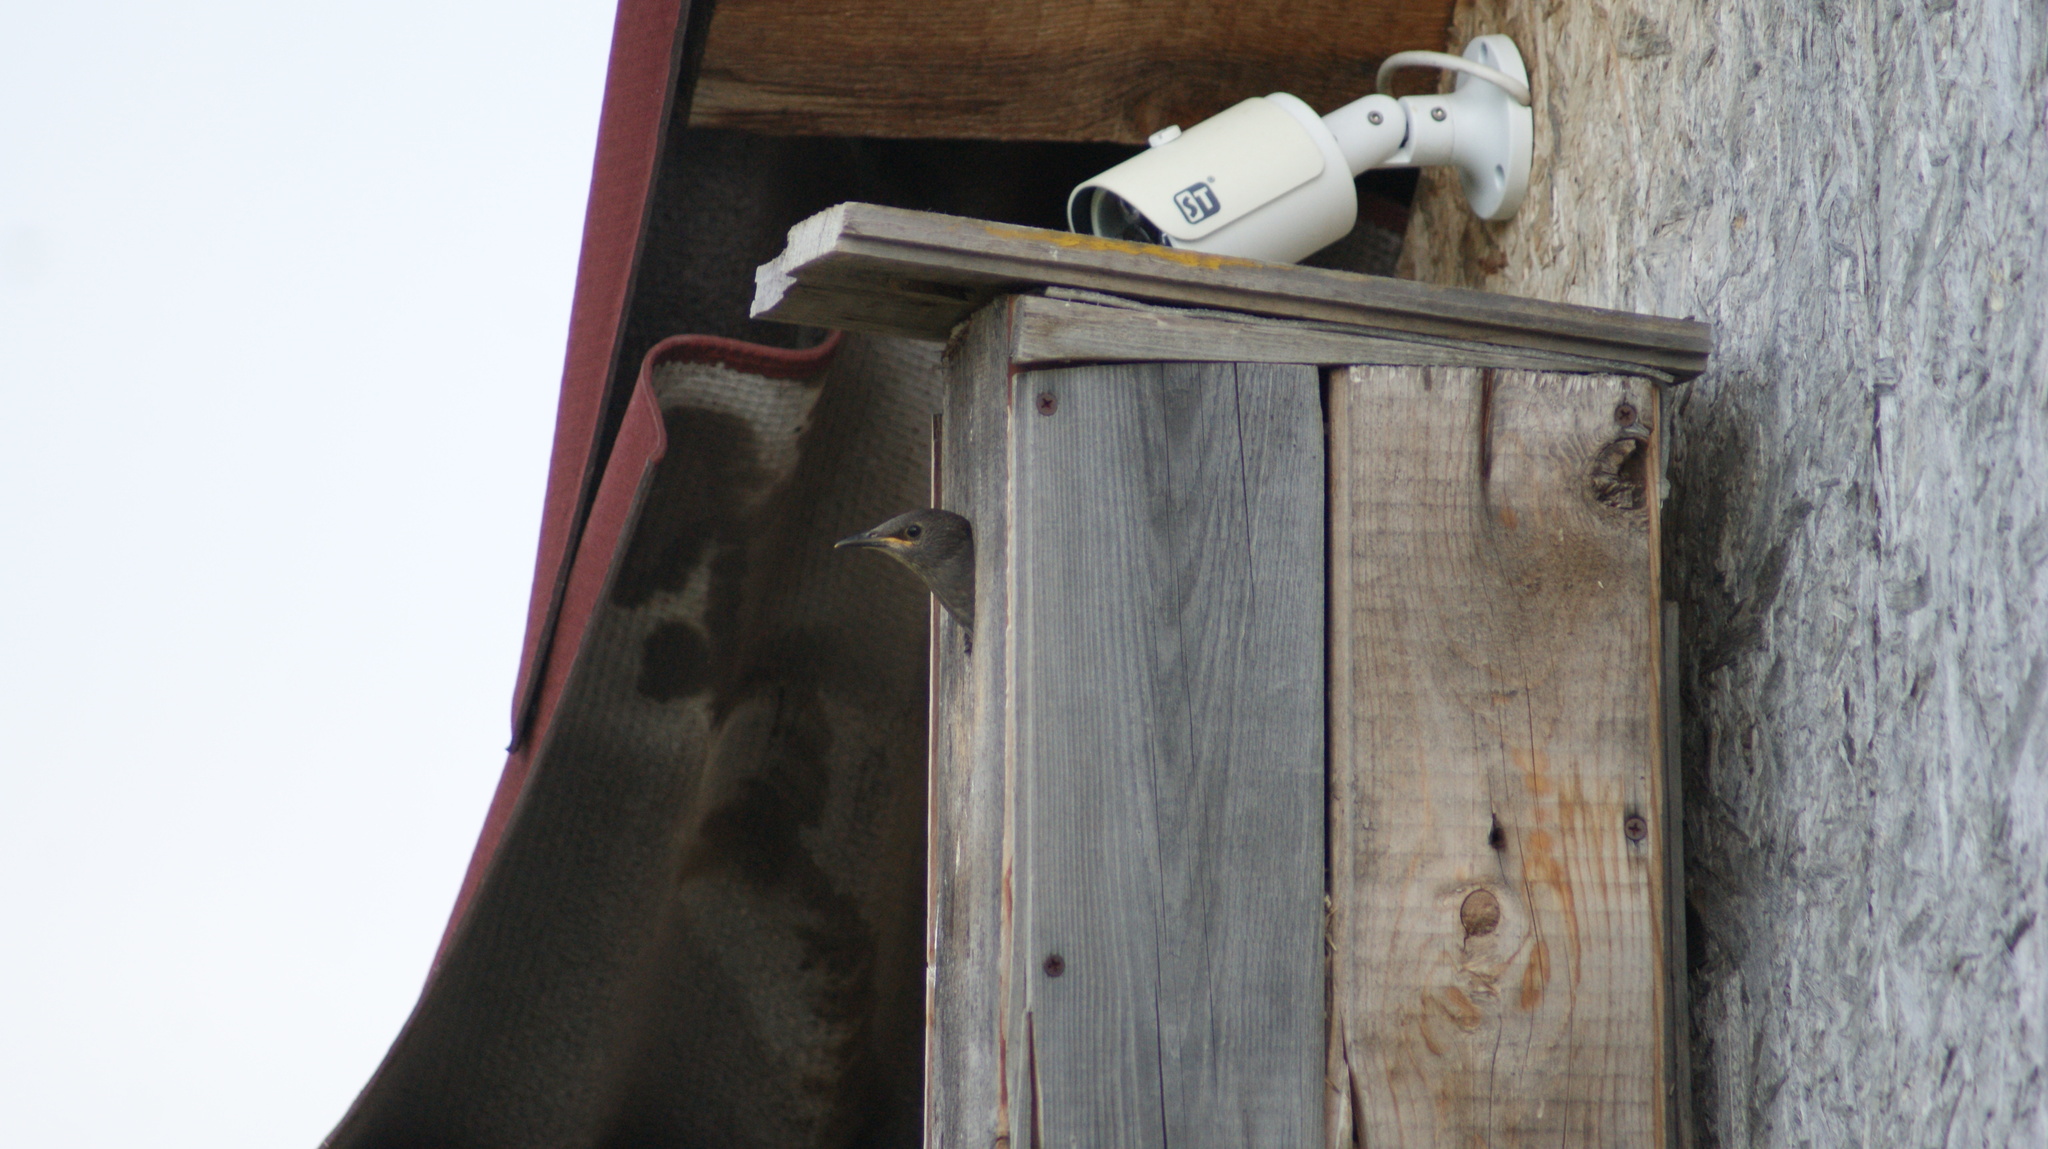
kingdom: Animalia
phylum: Chordata
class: Aves
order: Passeriformes
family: Sturnidae
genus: Sturnus
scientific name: Sturnus vulgaris
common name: Common starling
